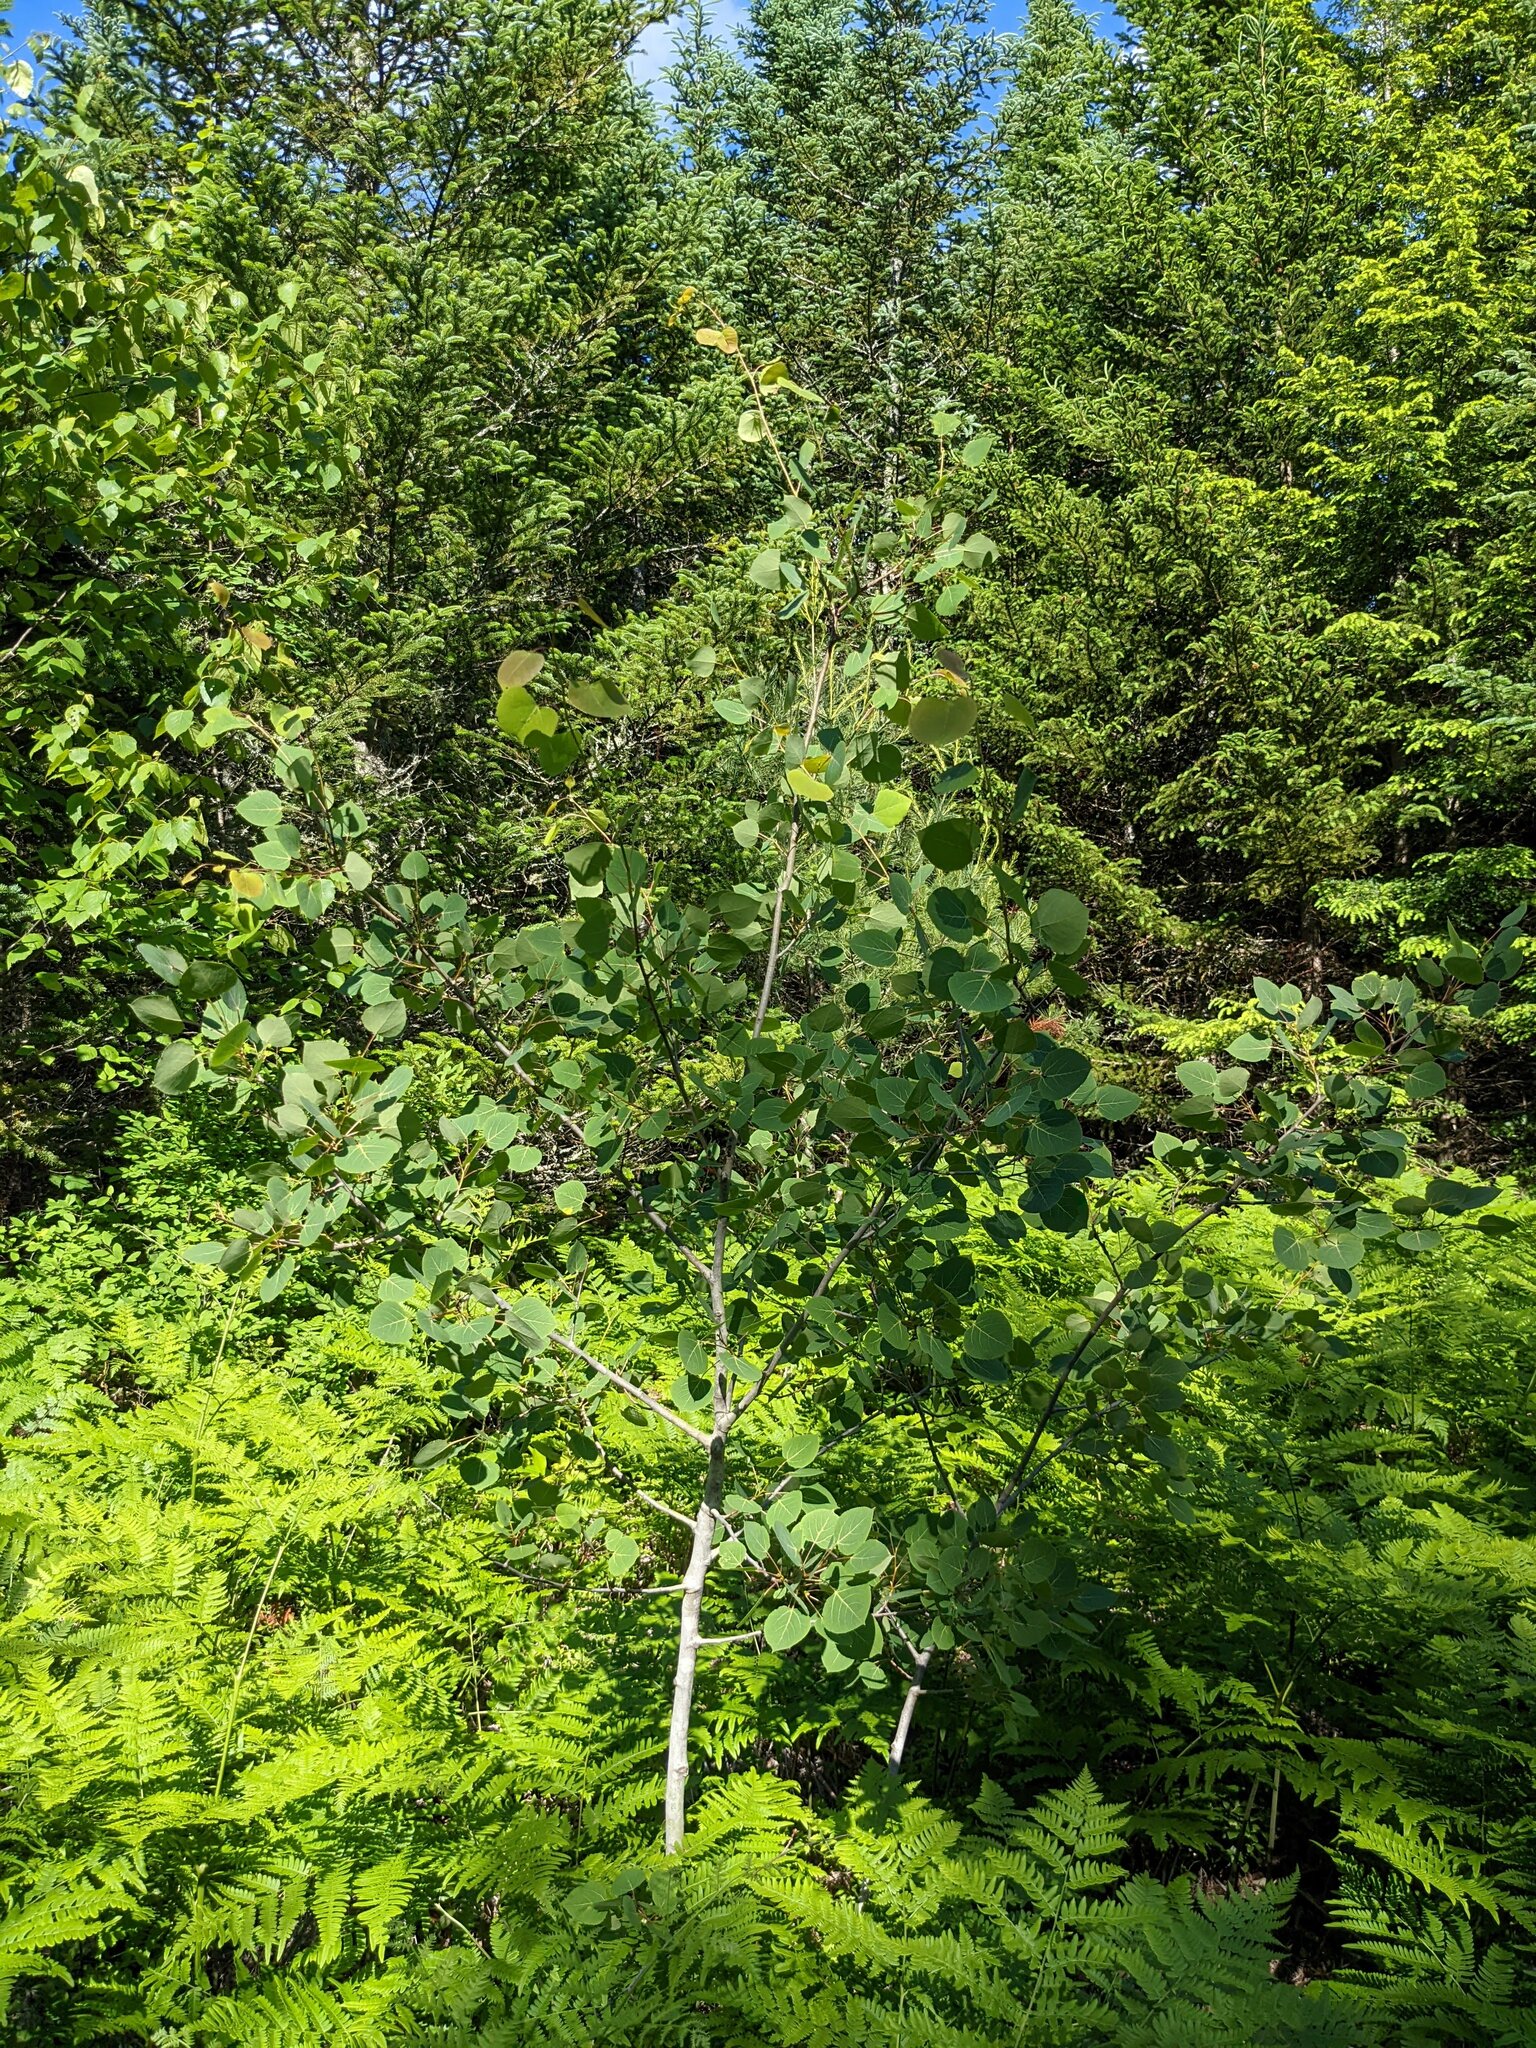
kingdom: Plantae
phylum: Tracheophyta
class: Magnoliopsida
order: Malpighiales
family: Salicaceae
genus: Populus
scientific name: Populus tremuloides
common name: Quaking aspen
